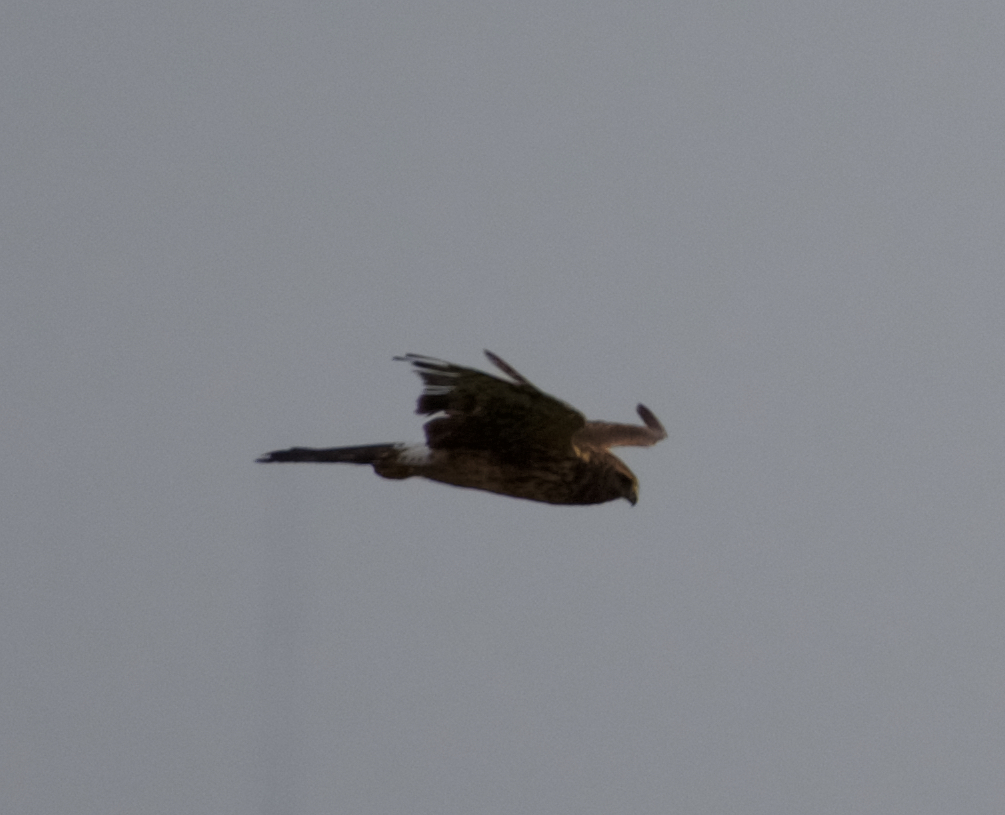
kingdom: Animalia
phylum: Chordata
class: Aves
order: Accipitriformes
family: Accipitridae
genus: Circus
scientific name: Circus cyaneus
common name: Hen harrier
